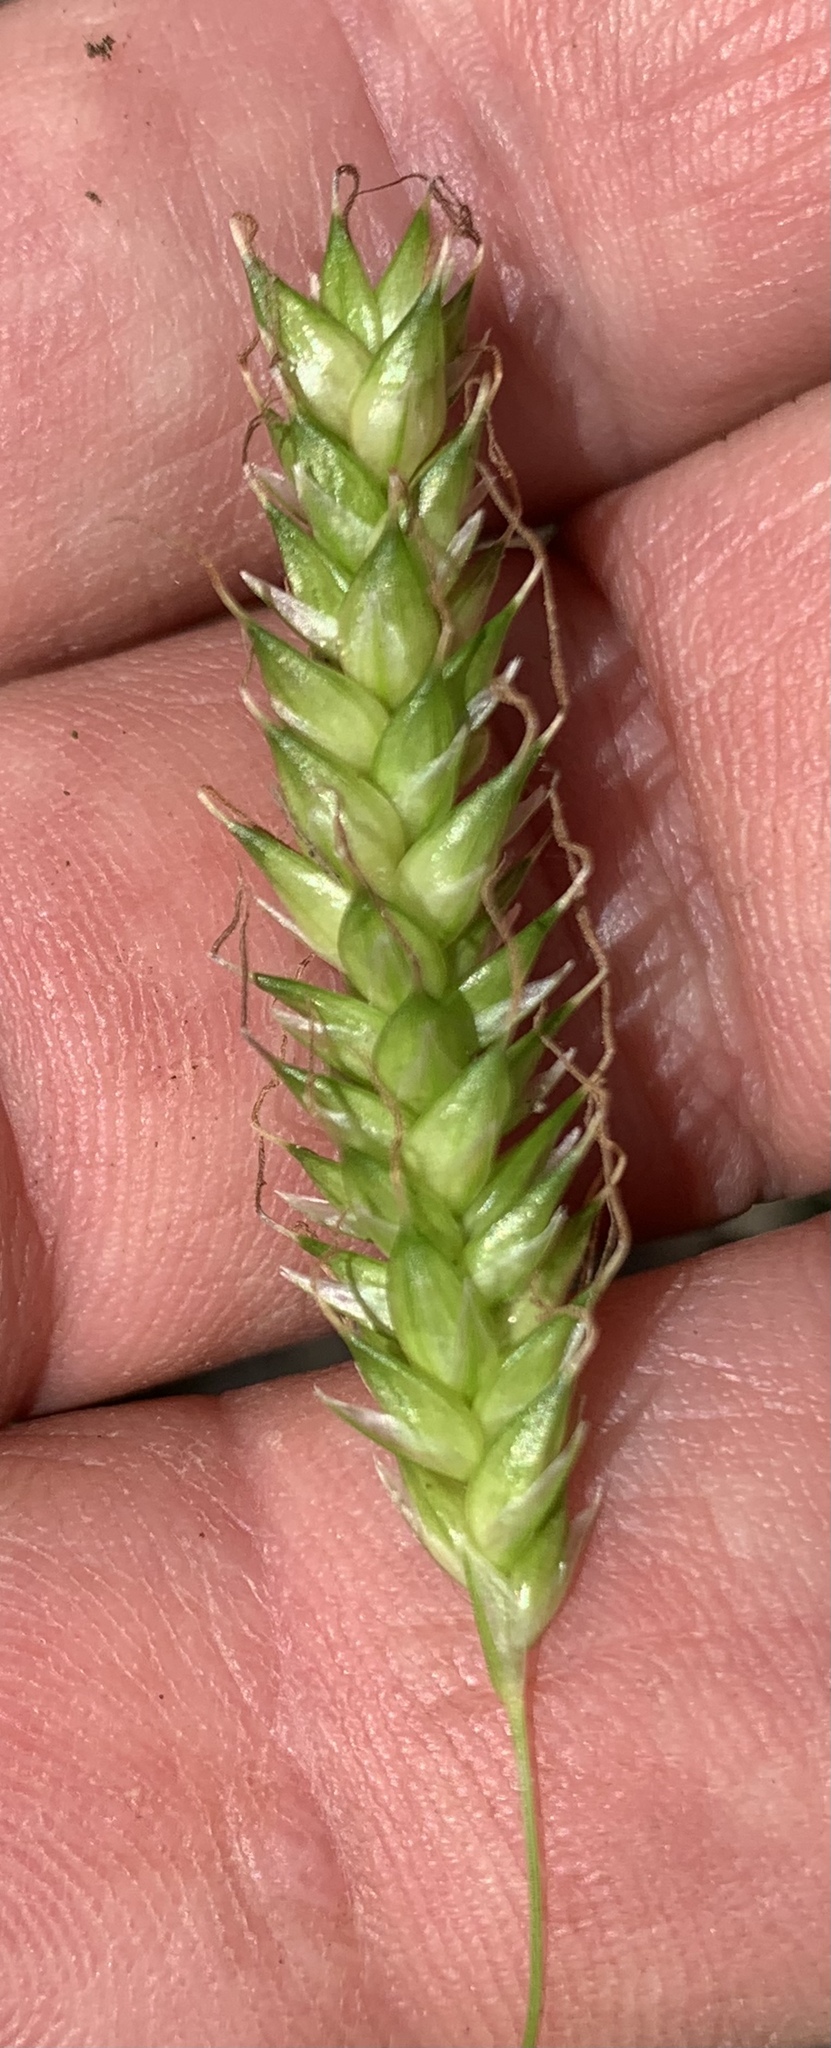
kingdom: Plantae
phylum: Tracheophyta
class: Liliopsida
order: Poales
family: Cyperaceae
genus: Carex
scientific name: Carex cherokeensis
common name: Cherokee sedge
